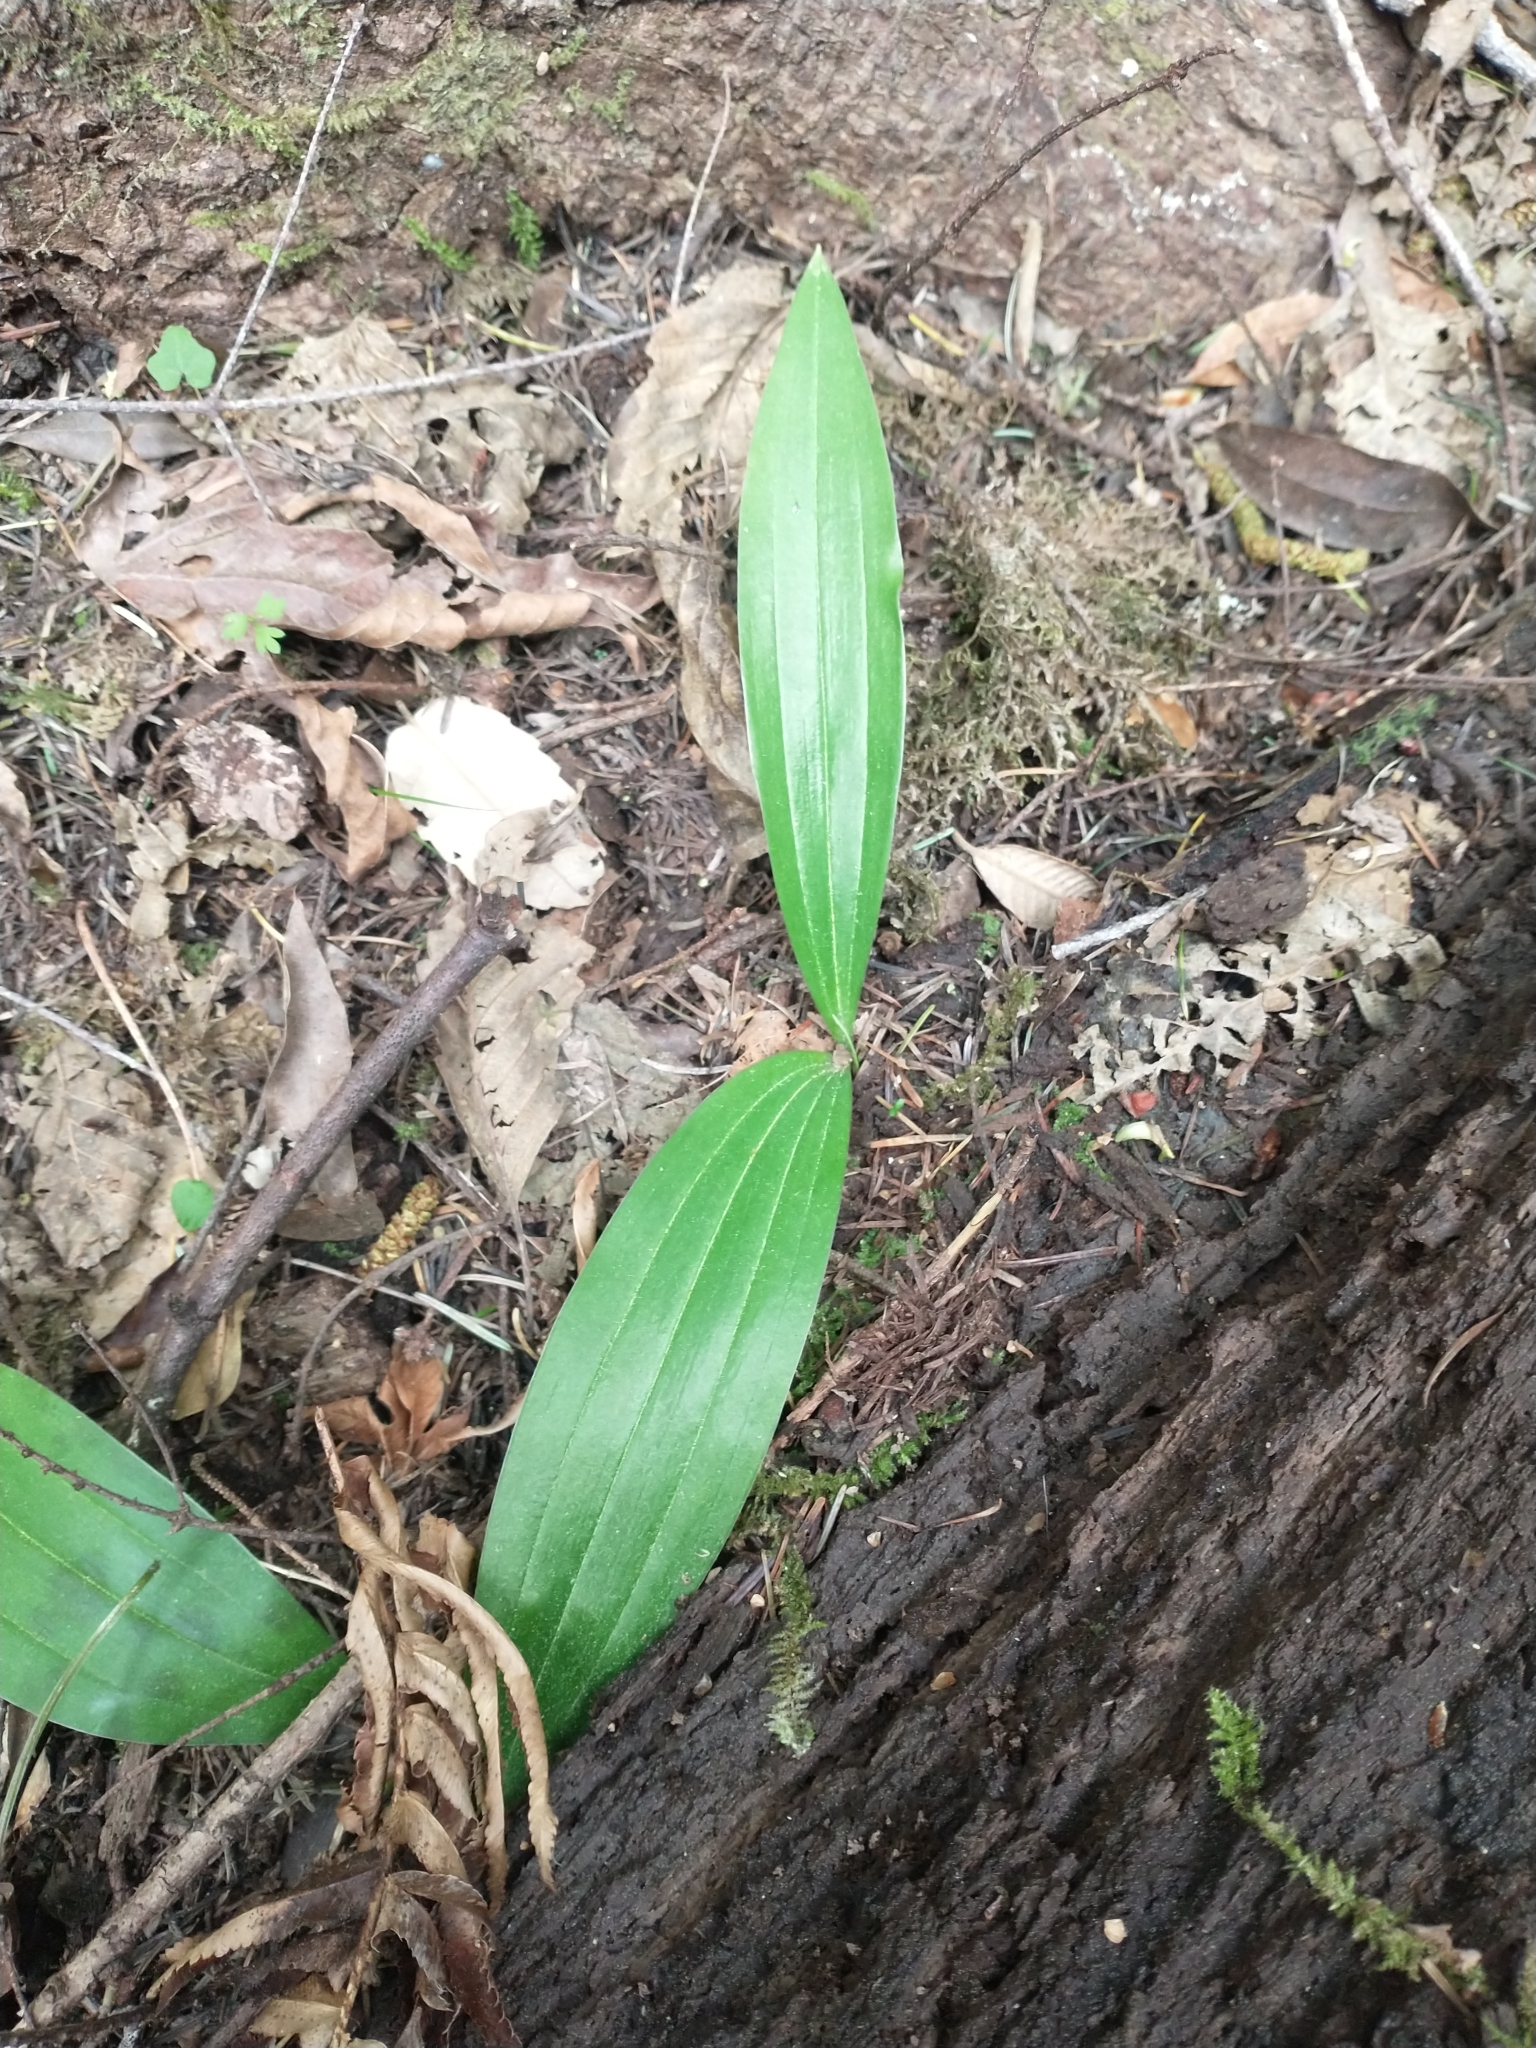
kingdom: Plantae
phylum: Tracheophyta
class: Liliopsida
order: Liliales
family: Liliaceae
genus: Scoliopus
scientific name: Scoliopus bigelovii
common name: Foetid adder's-tongue
